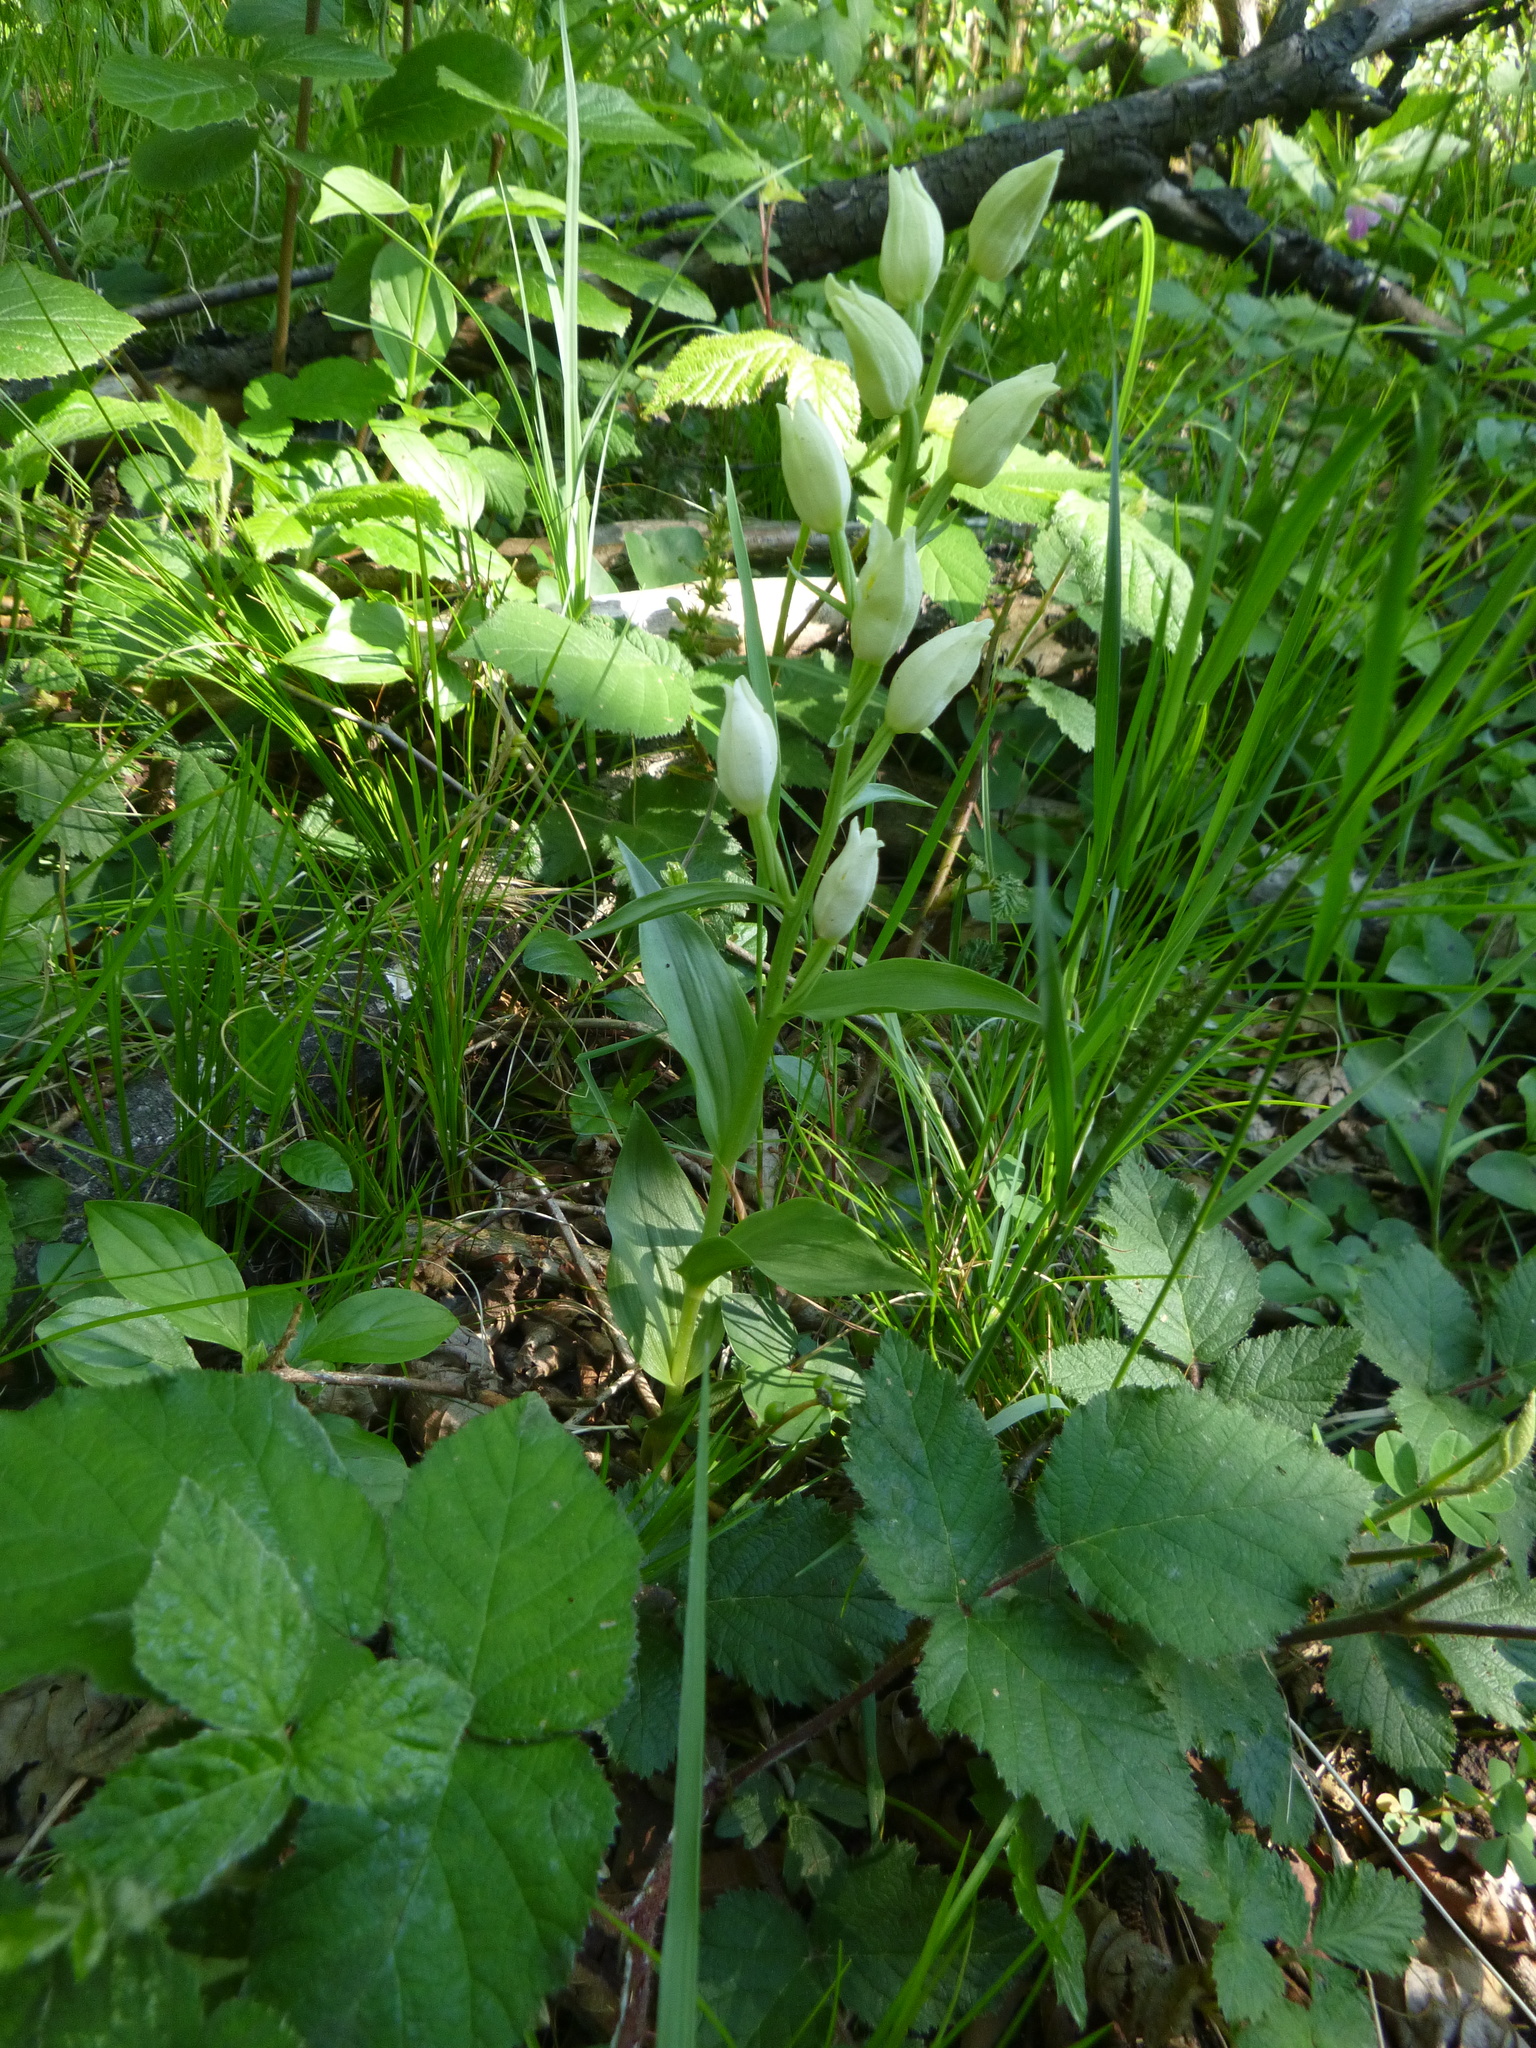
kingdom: Plantae
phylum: Tracheophyta
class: Liliopsida
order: Asparagales
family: Orchidaceae
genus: Cephalanthera
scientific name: Cephalanthera damasonium
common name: White helleborine
